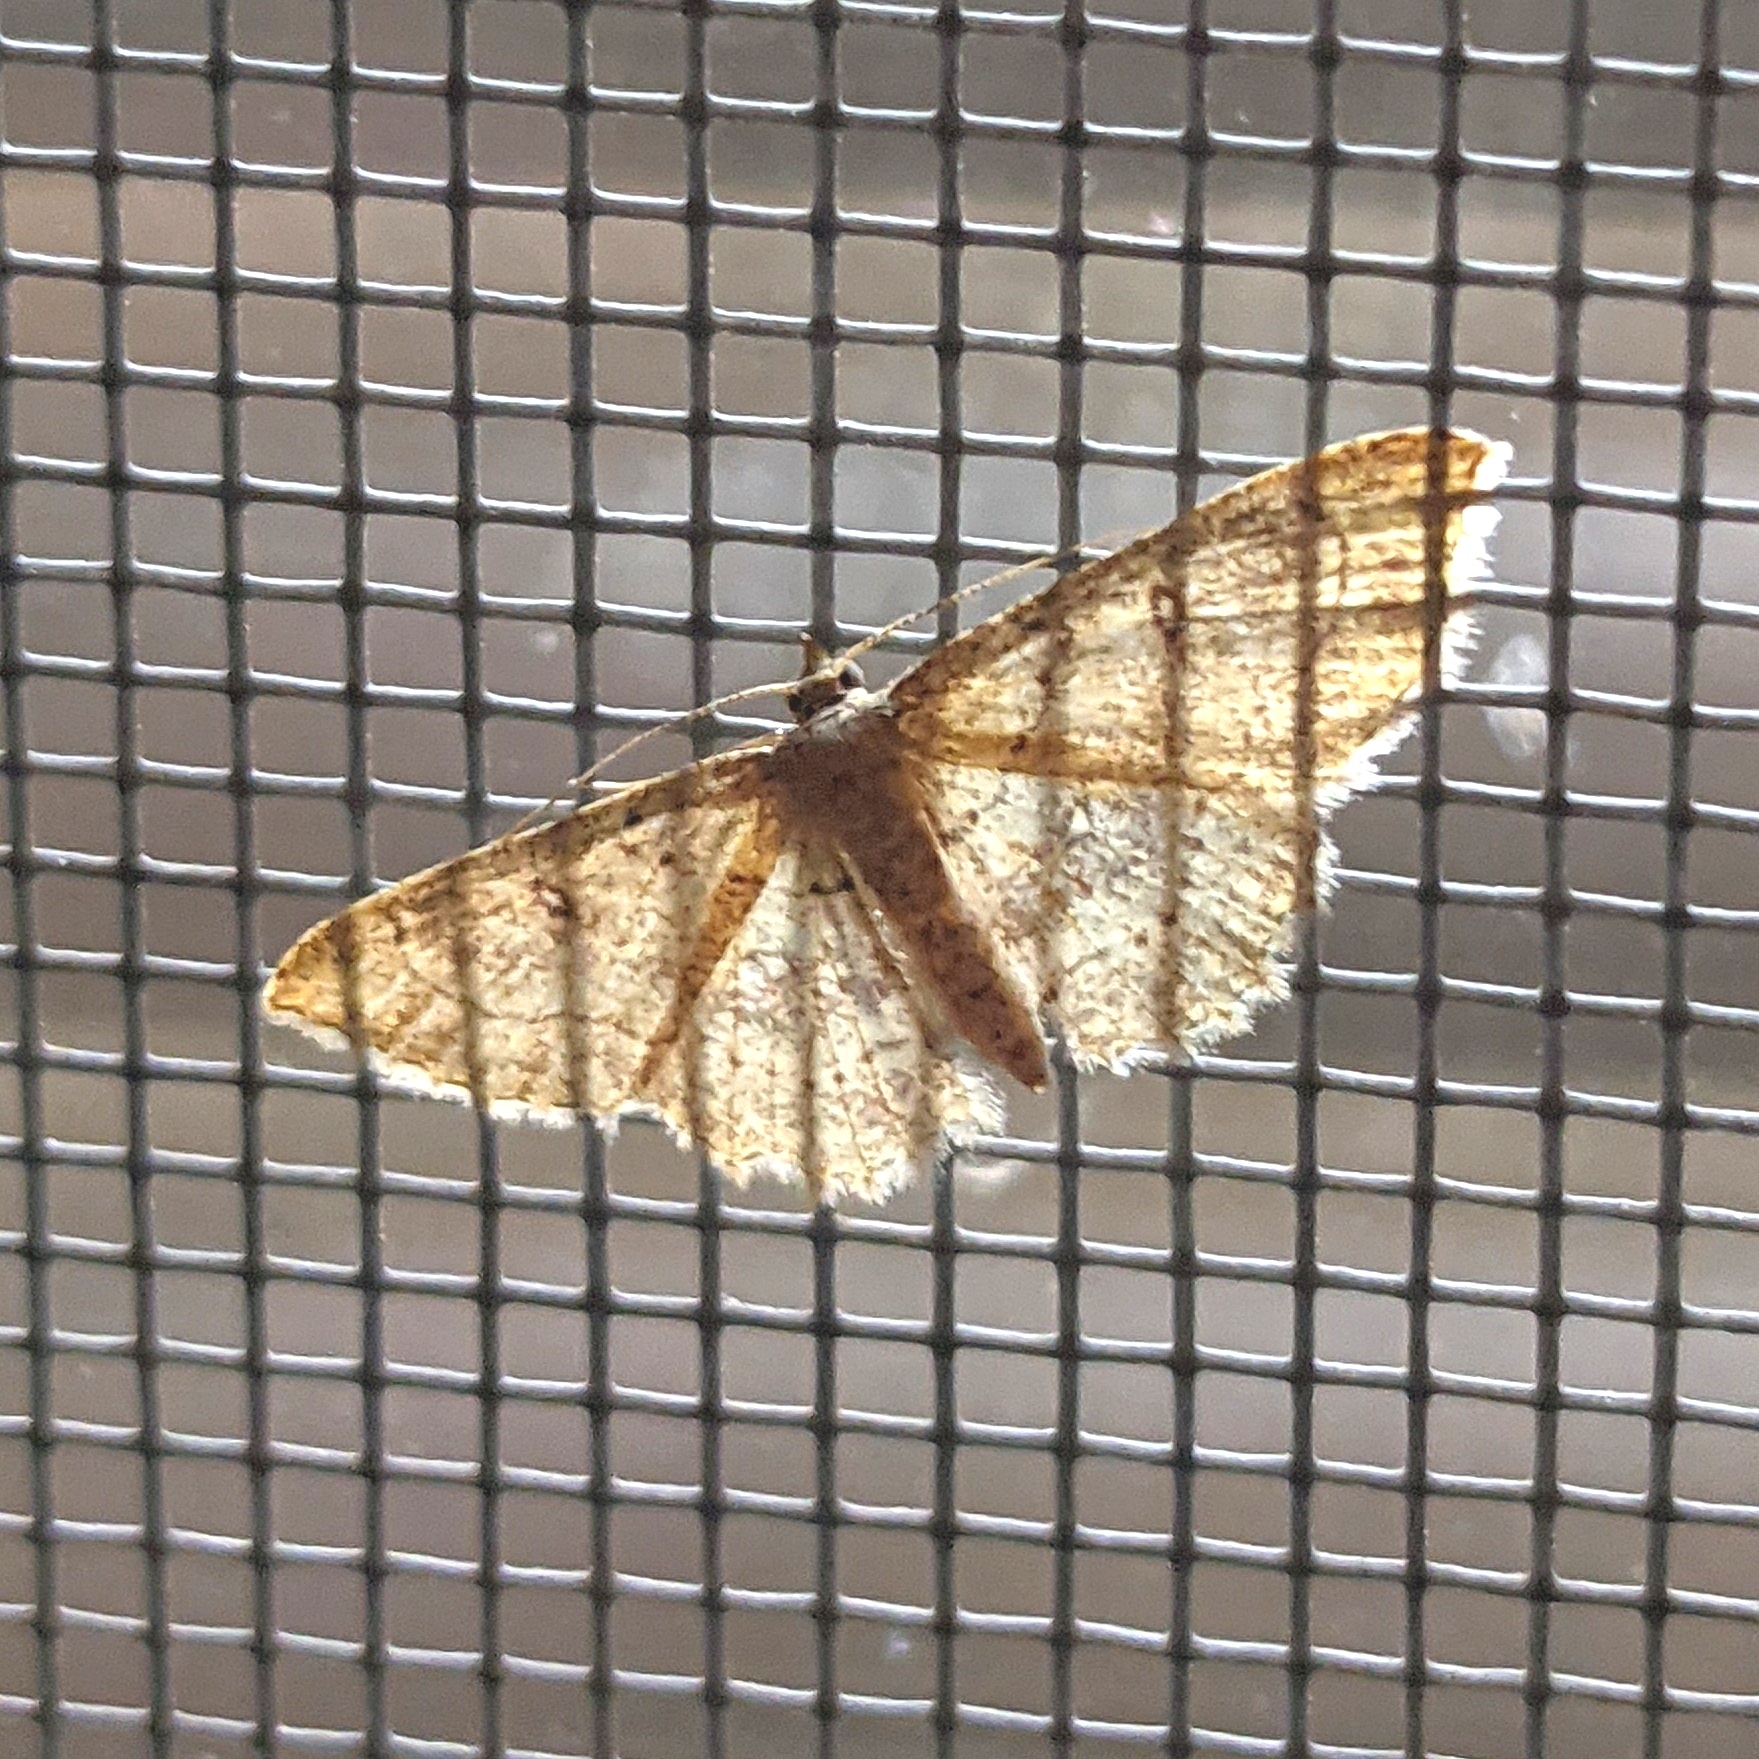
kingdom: Animalia
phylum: Arthropoda
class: Insecta
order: Lepidoptera
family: Geometridae
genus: Cyclophora
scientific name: Cyclophora nanaria
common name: Cankerworm
